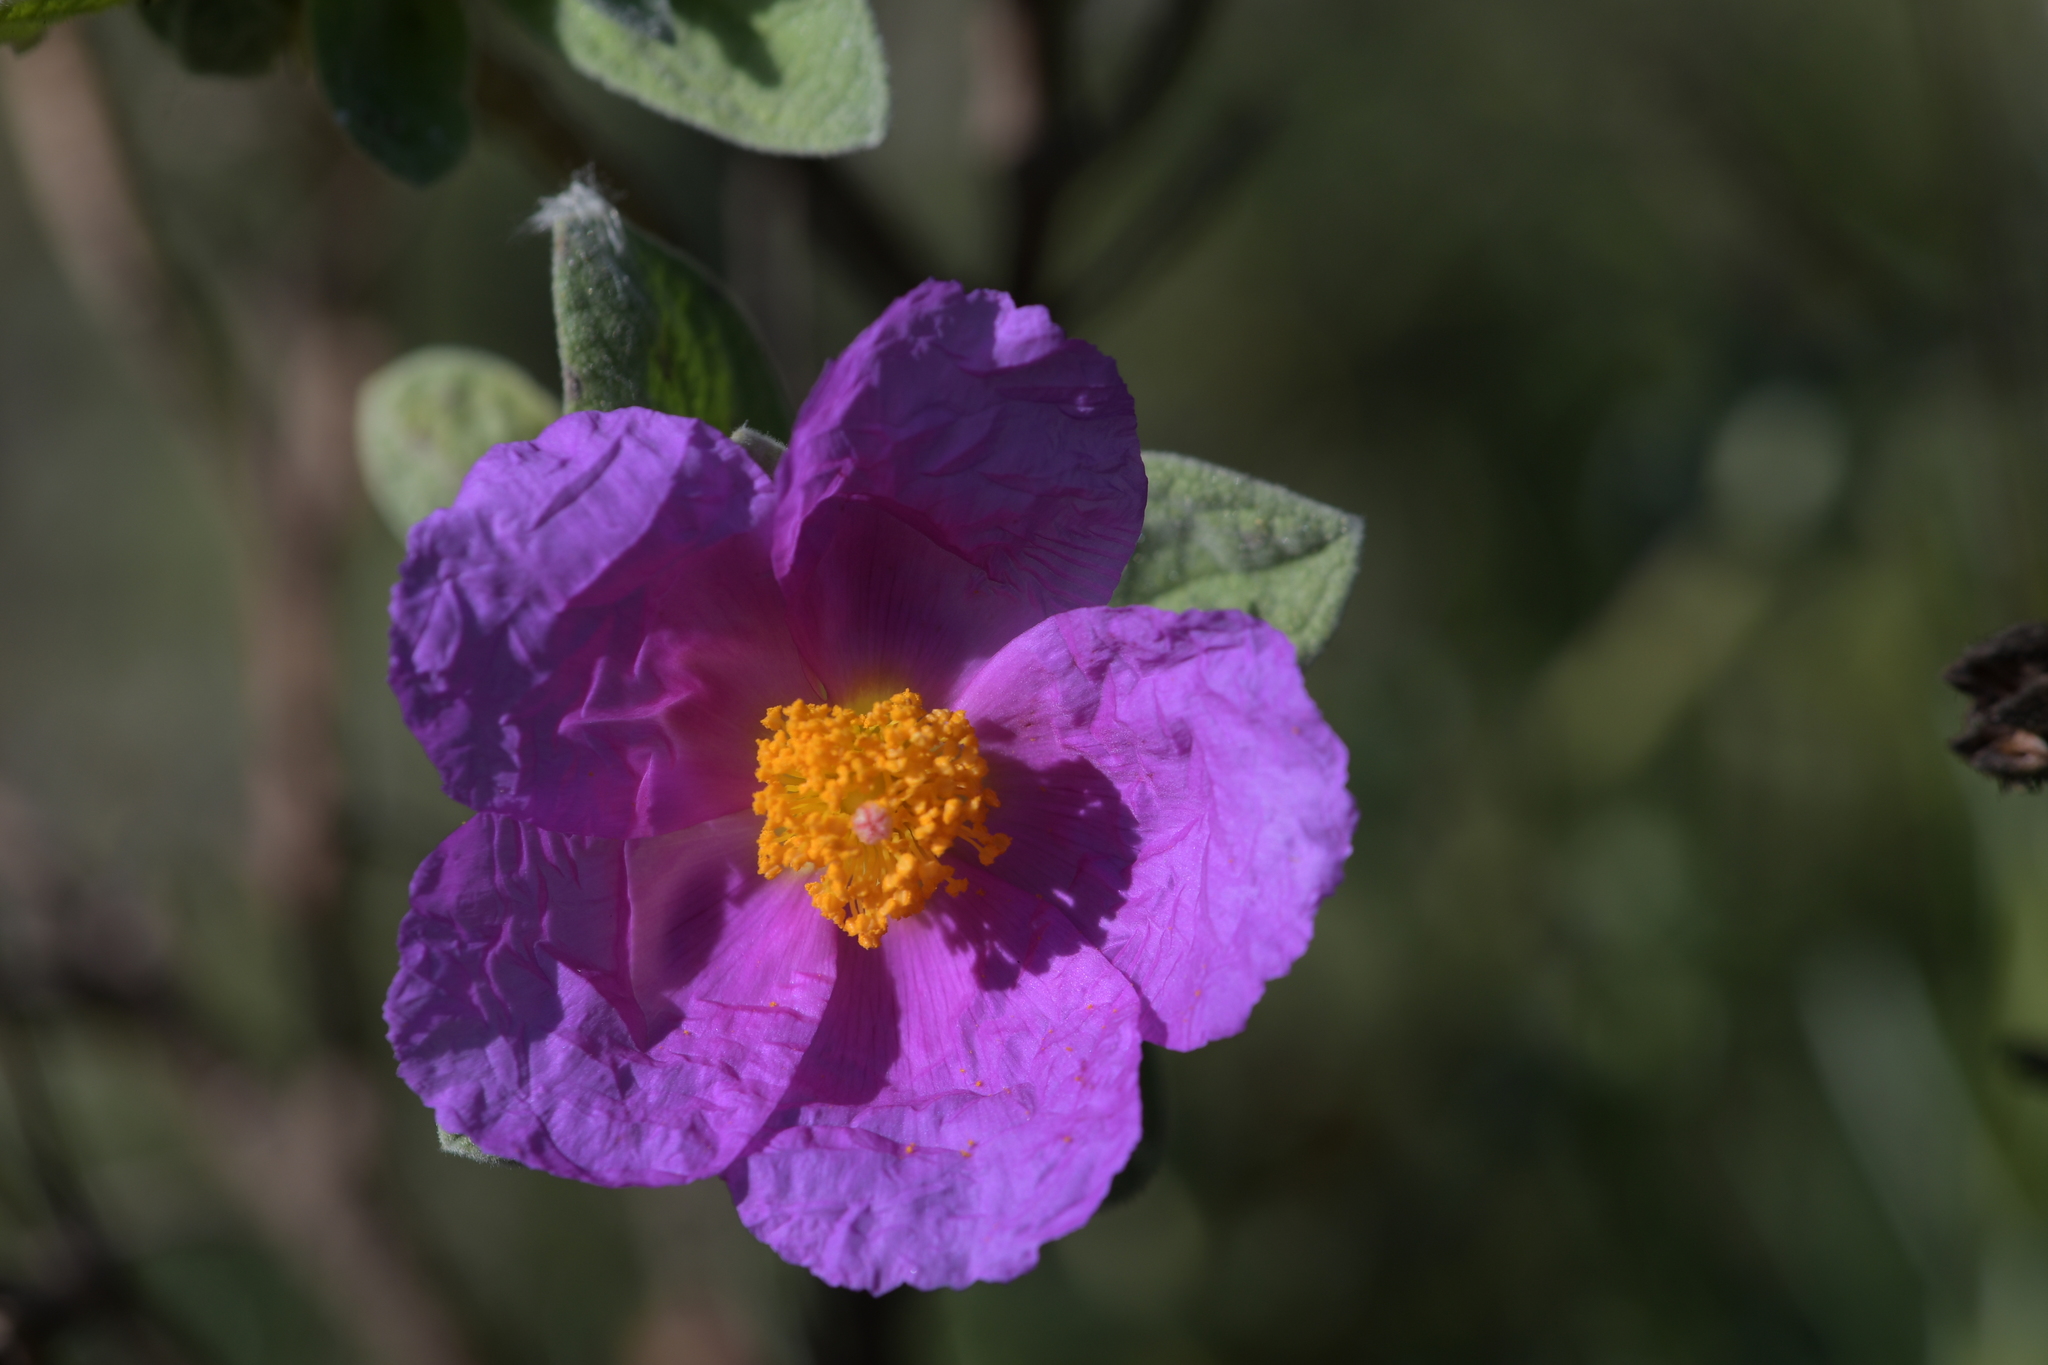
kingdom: Plantae
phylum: Tracheophyta
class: Magnoliopsida
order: Malvales
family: Cistaceae
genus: Cistus
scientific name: Cistus albidus
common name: White-leaf rock-rose
